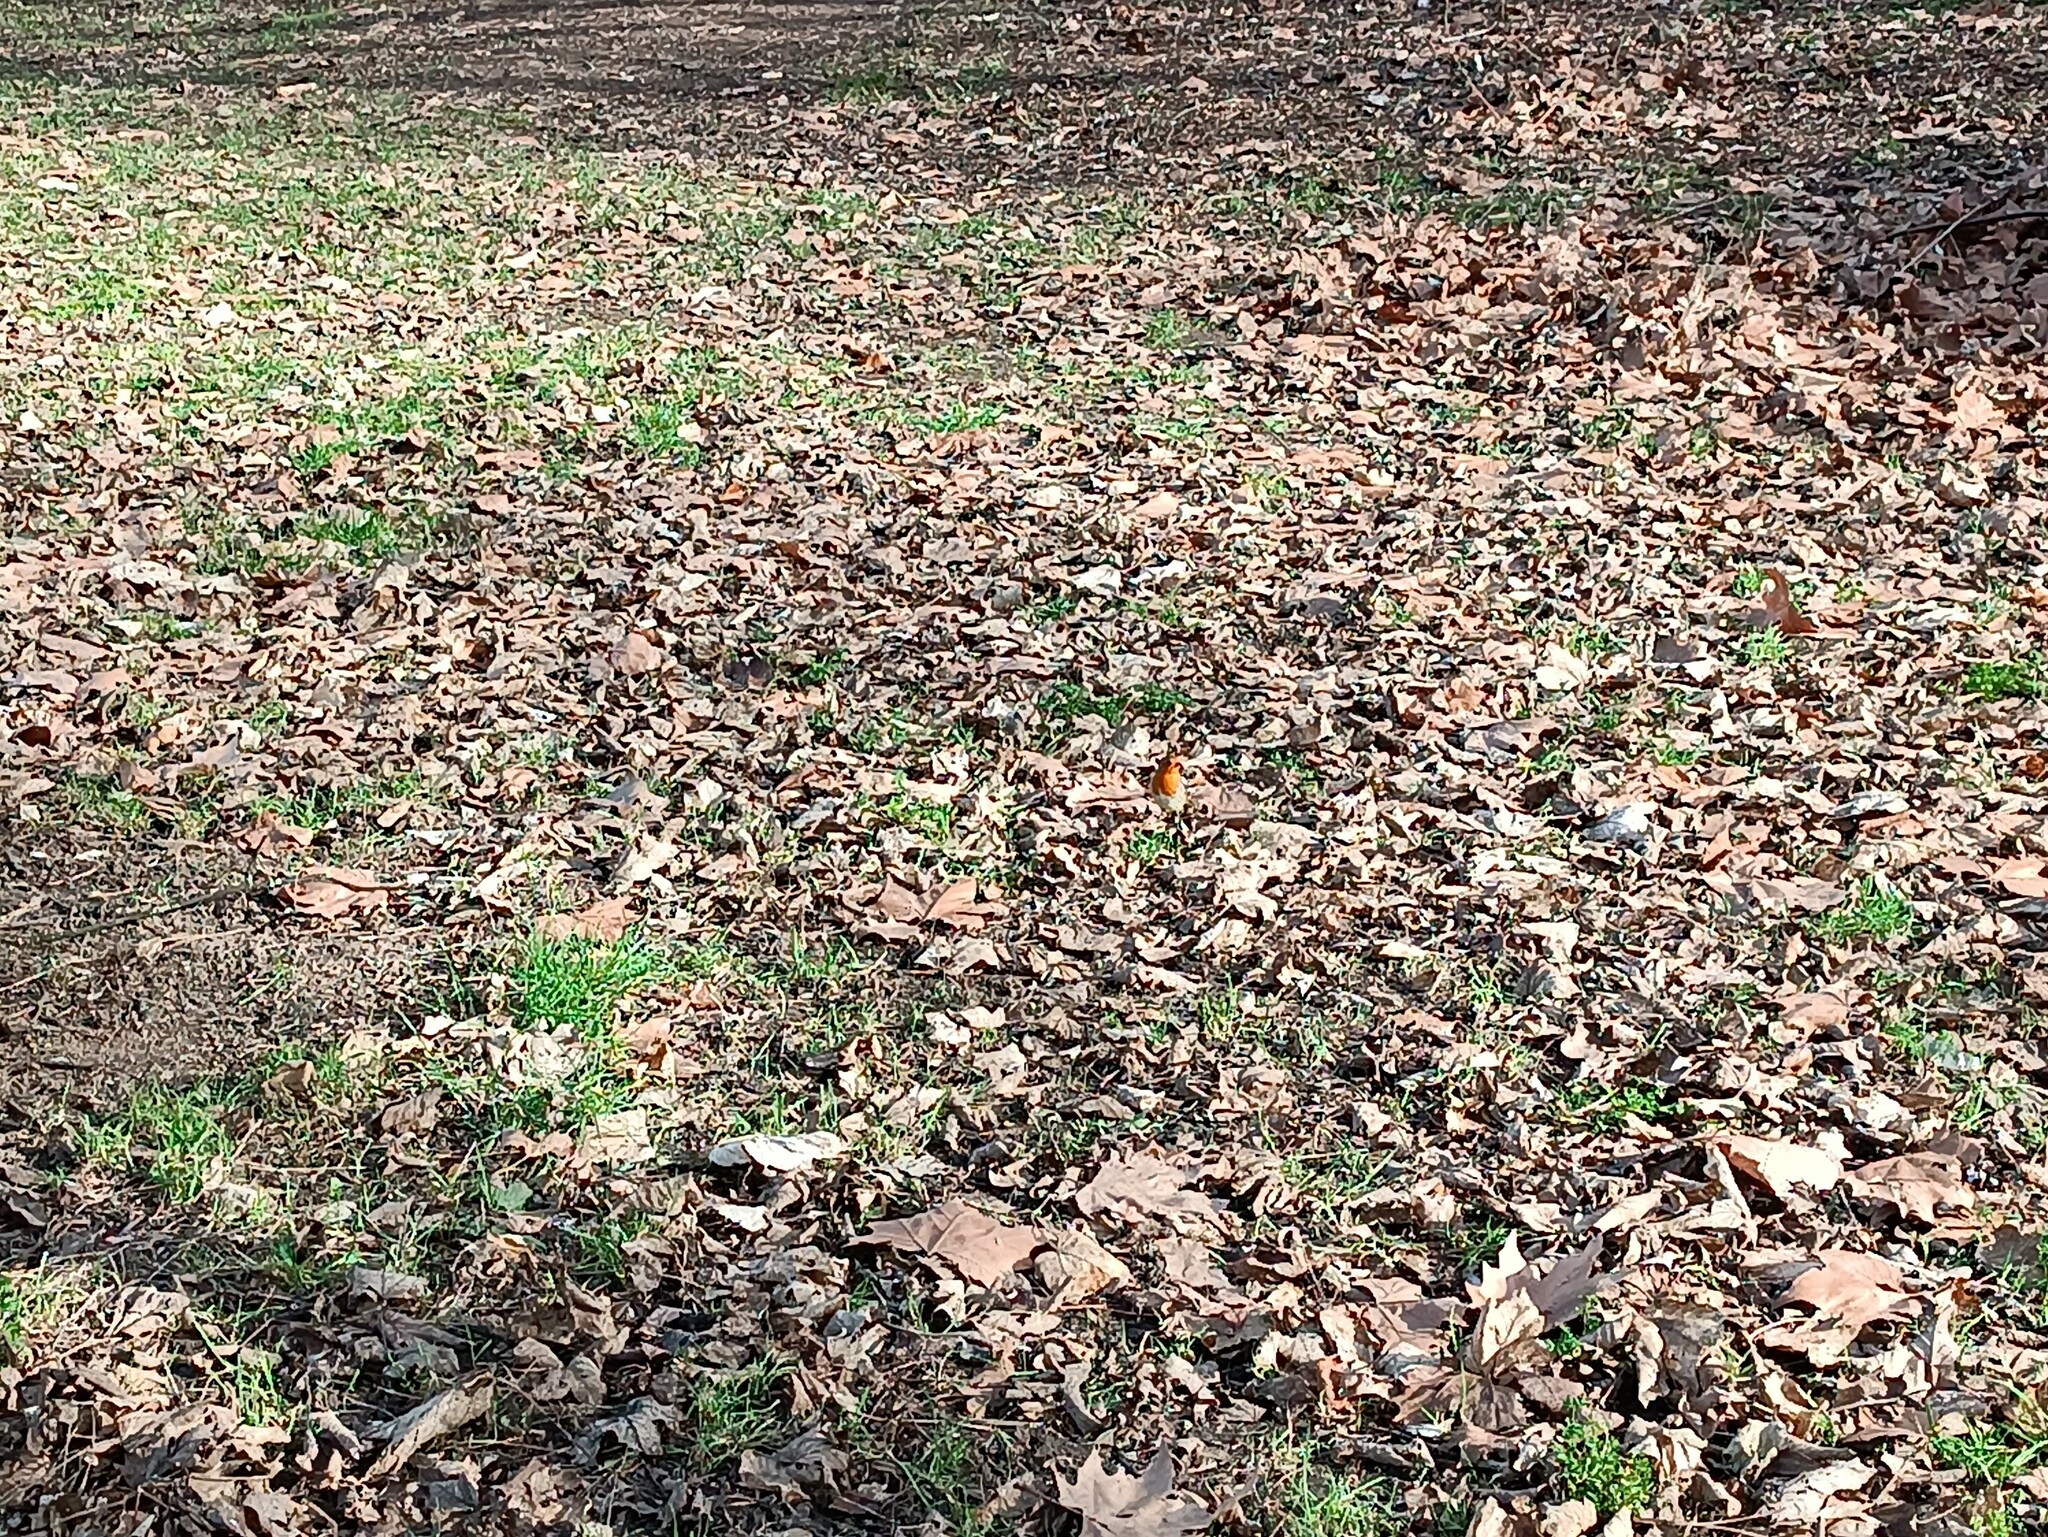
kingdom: Animalia
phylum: Chordata
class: Aves
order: Passeriformes
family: Muscicapidae
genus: Erithacus
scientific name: Erithacus rubecula
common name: European robin
